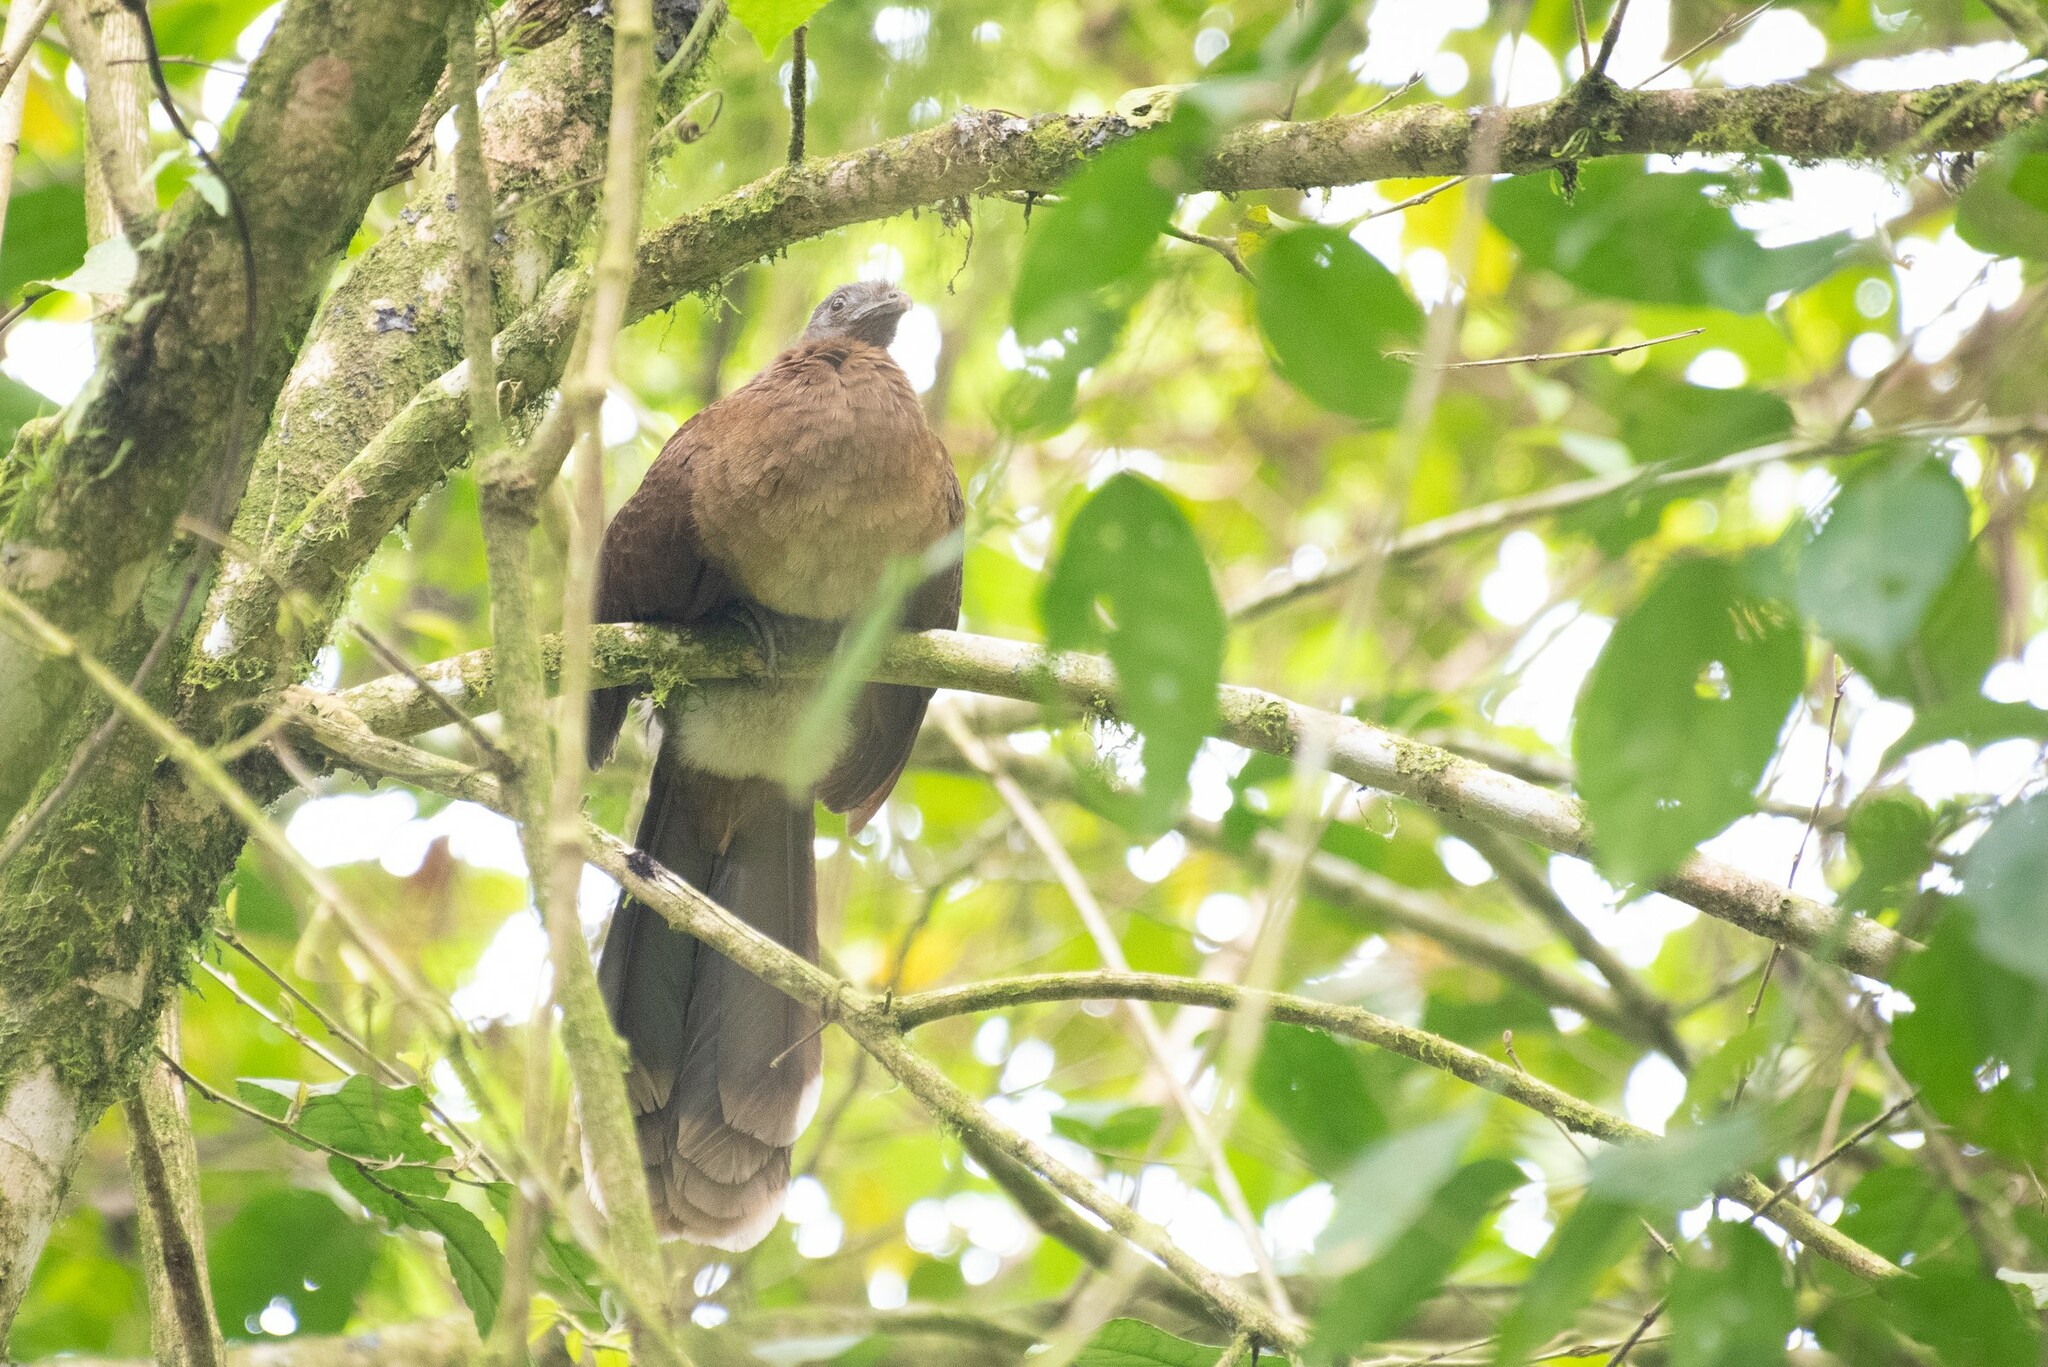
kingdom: Animalia
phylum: Chordata
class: Aves
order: Galliformes
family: Cracidae
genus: Ortalis
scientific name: Ortalis cinereiceps
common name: Grey-headed chachalaca
